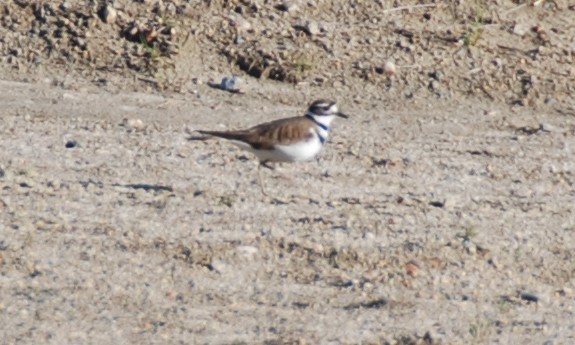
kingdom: Animalia
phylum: Chordata
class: Aves
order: Charadriiformes
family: Charadriidae
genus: Charadrius
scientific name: Charadrius vociferus
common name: Killdeer
